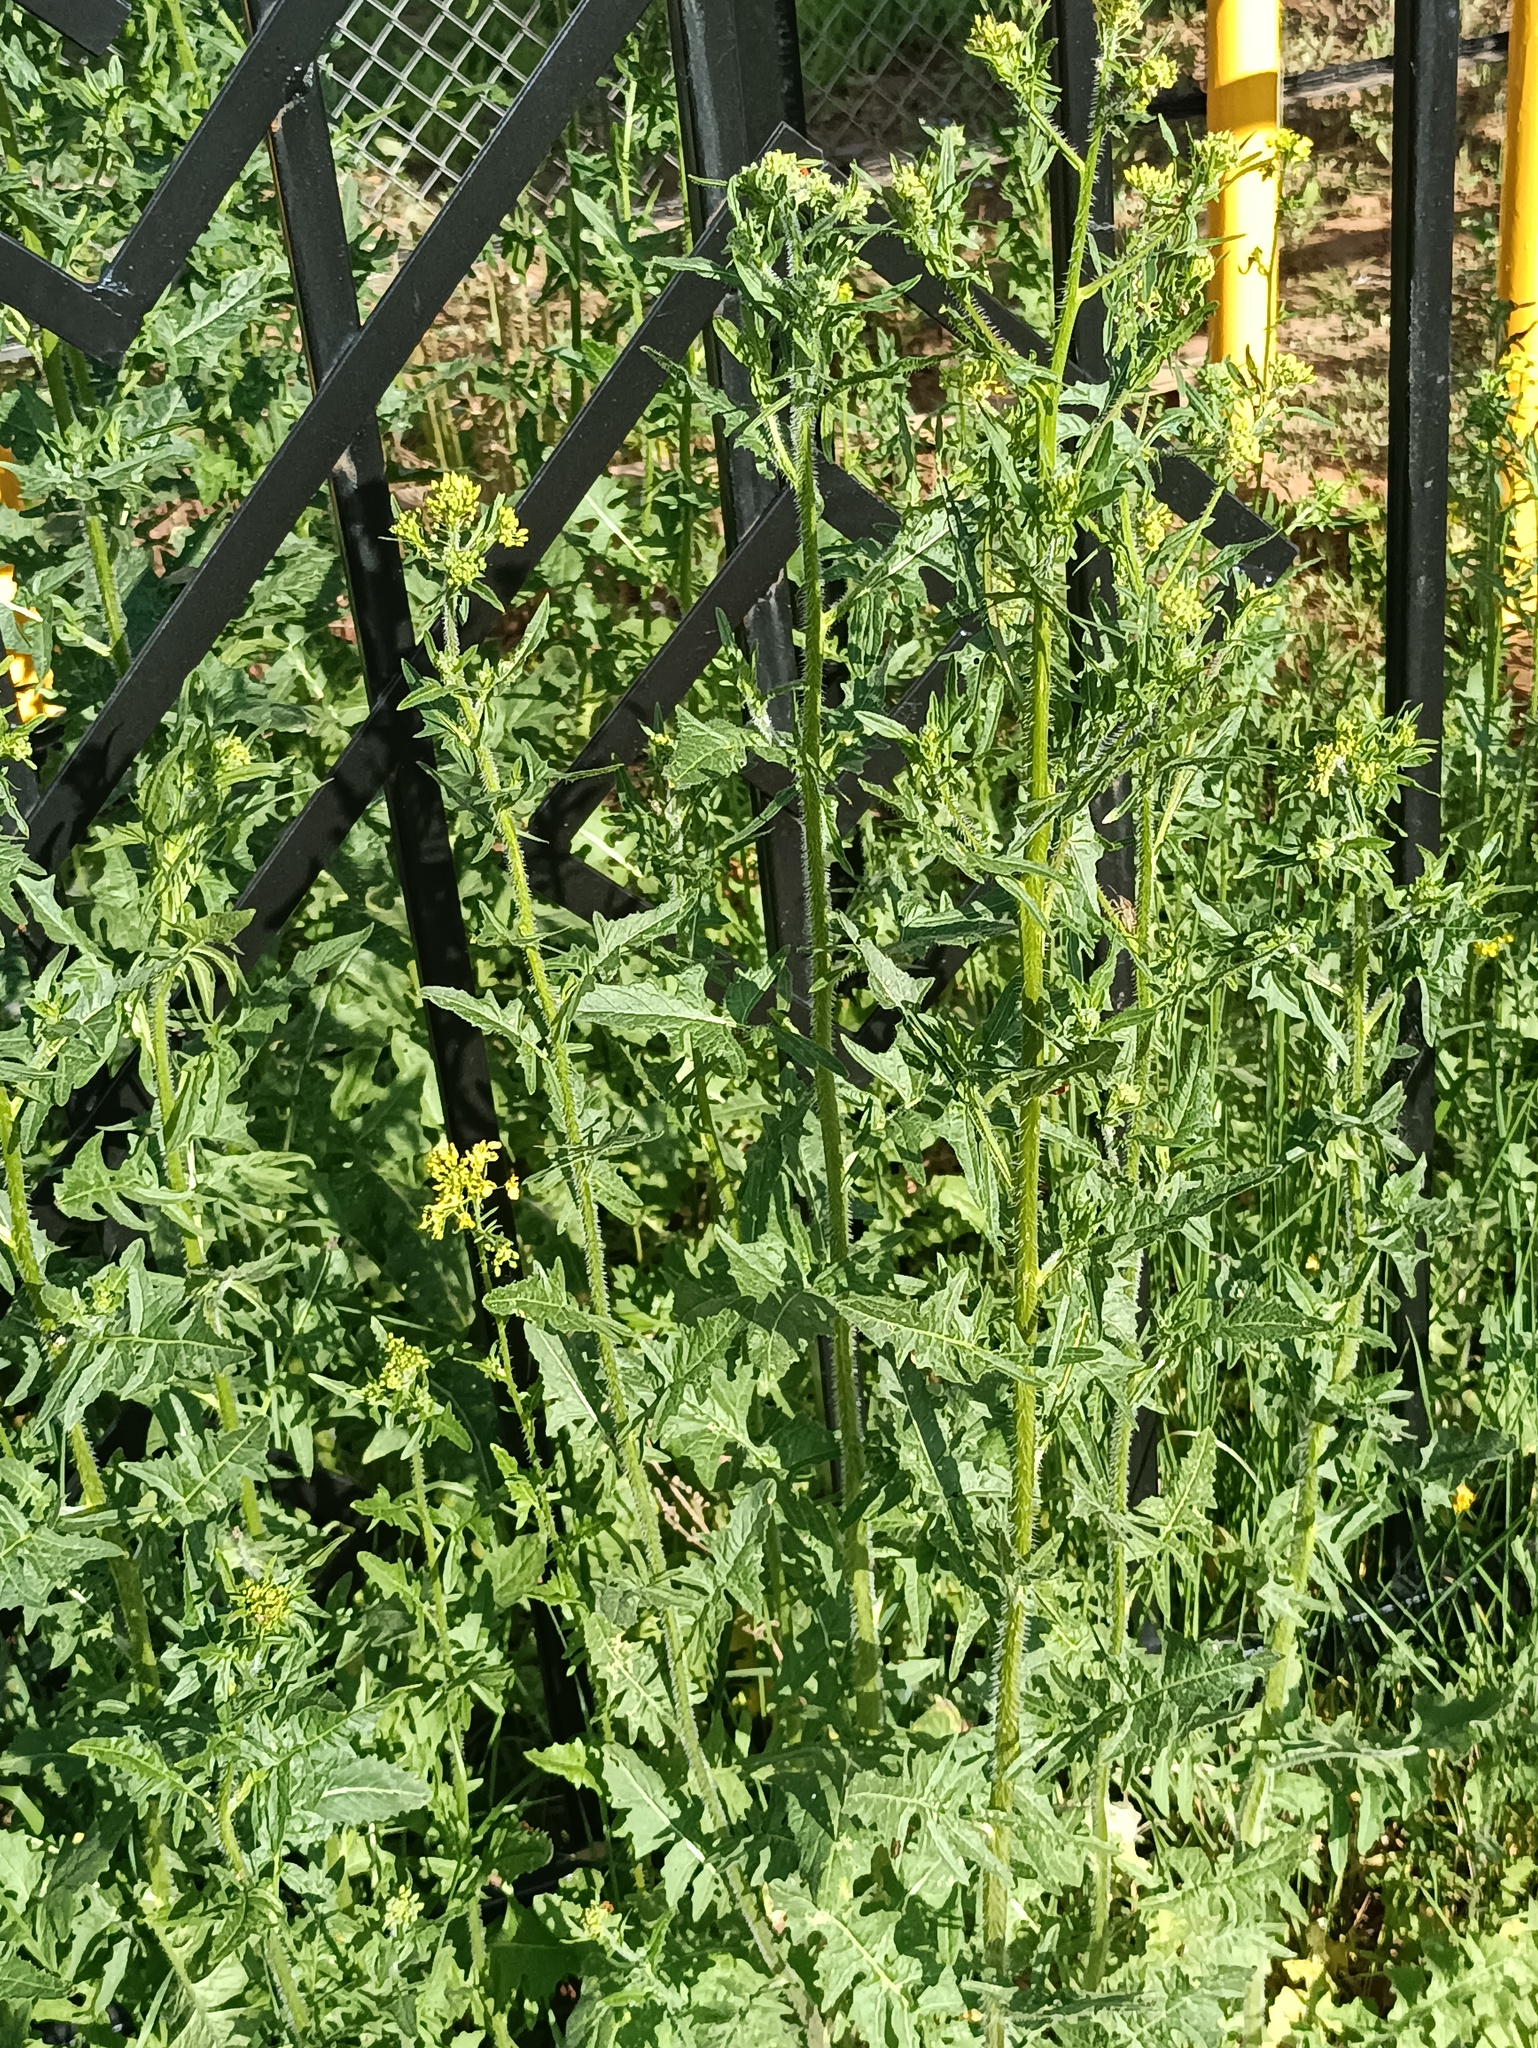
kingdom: Plantae
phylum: Tracheophyta
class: Magnoliopsida
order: Brassicales
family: Brassicaceae
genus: Sisymbrium
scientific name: Sisymbrium loeselii
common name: False london-rocket
